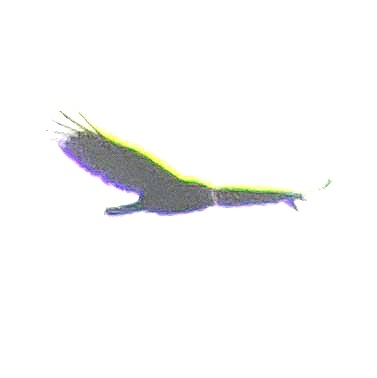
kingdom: Animalia
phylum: Chordata
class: Aves
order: Accipitriformes
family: Cathartidae
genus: Cathartes
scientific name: Cathartes aura
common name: Turkey vulture
